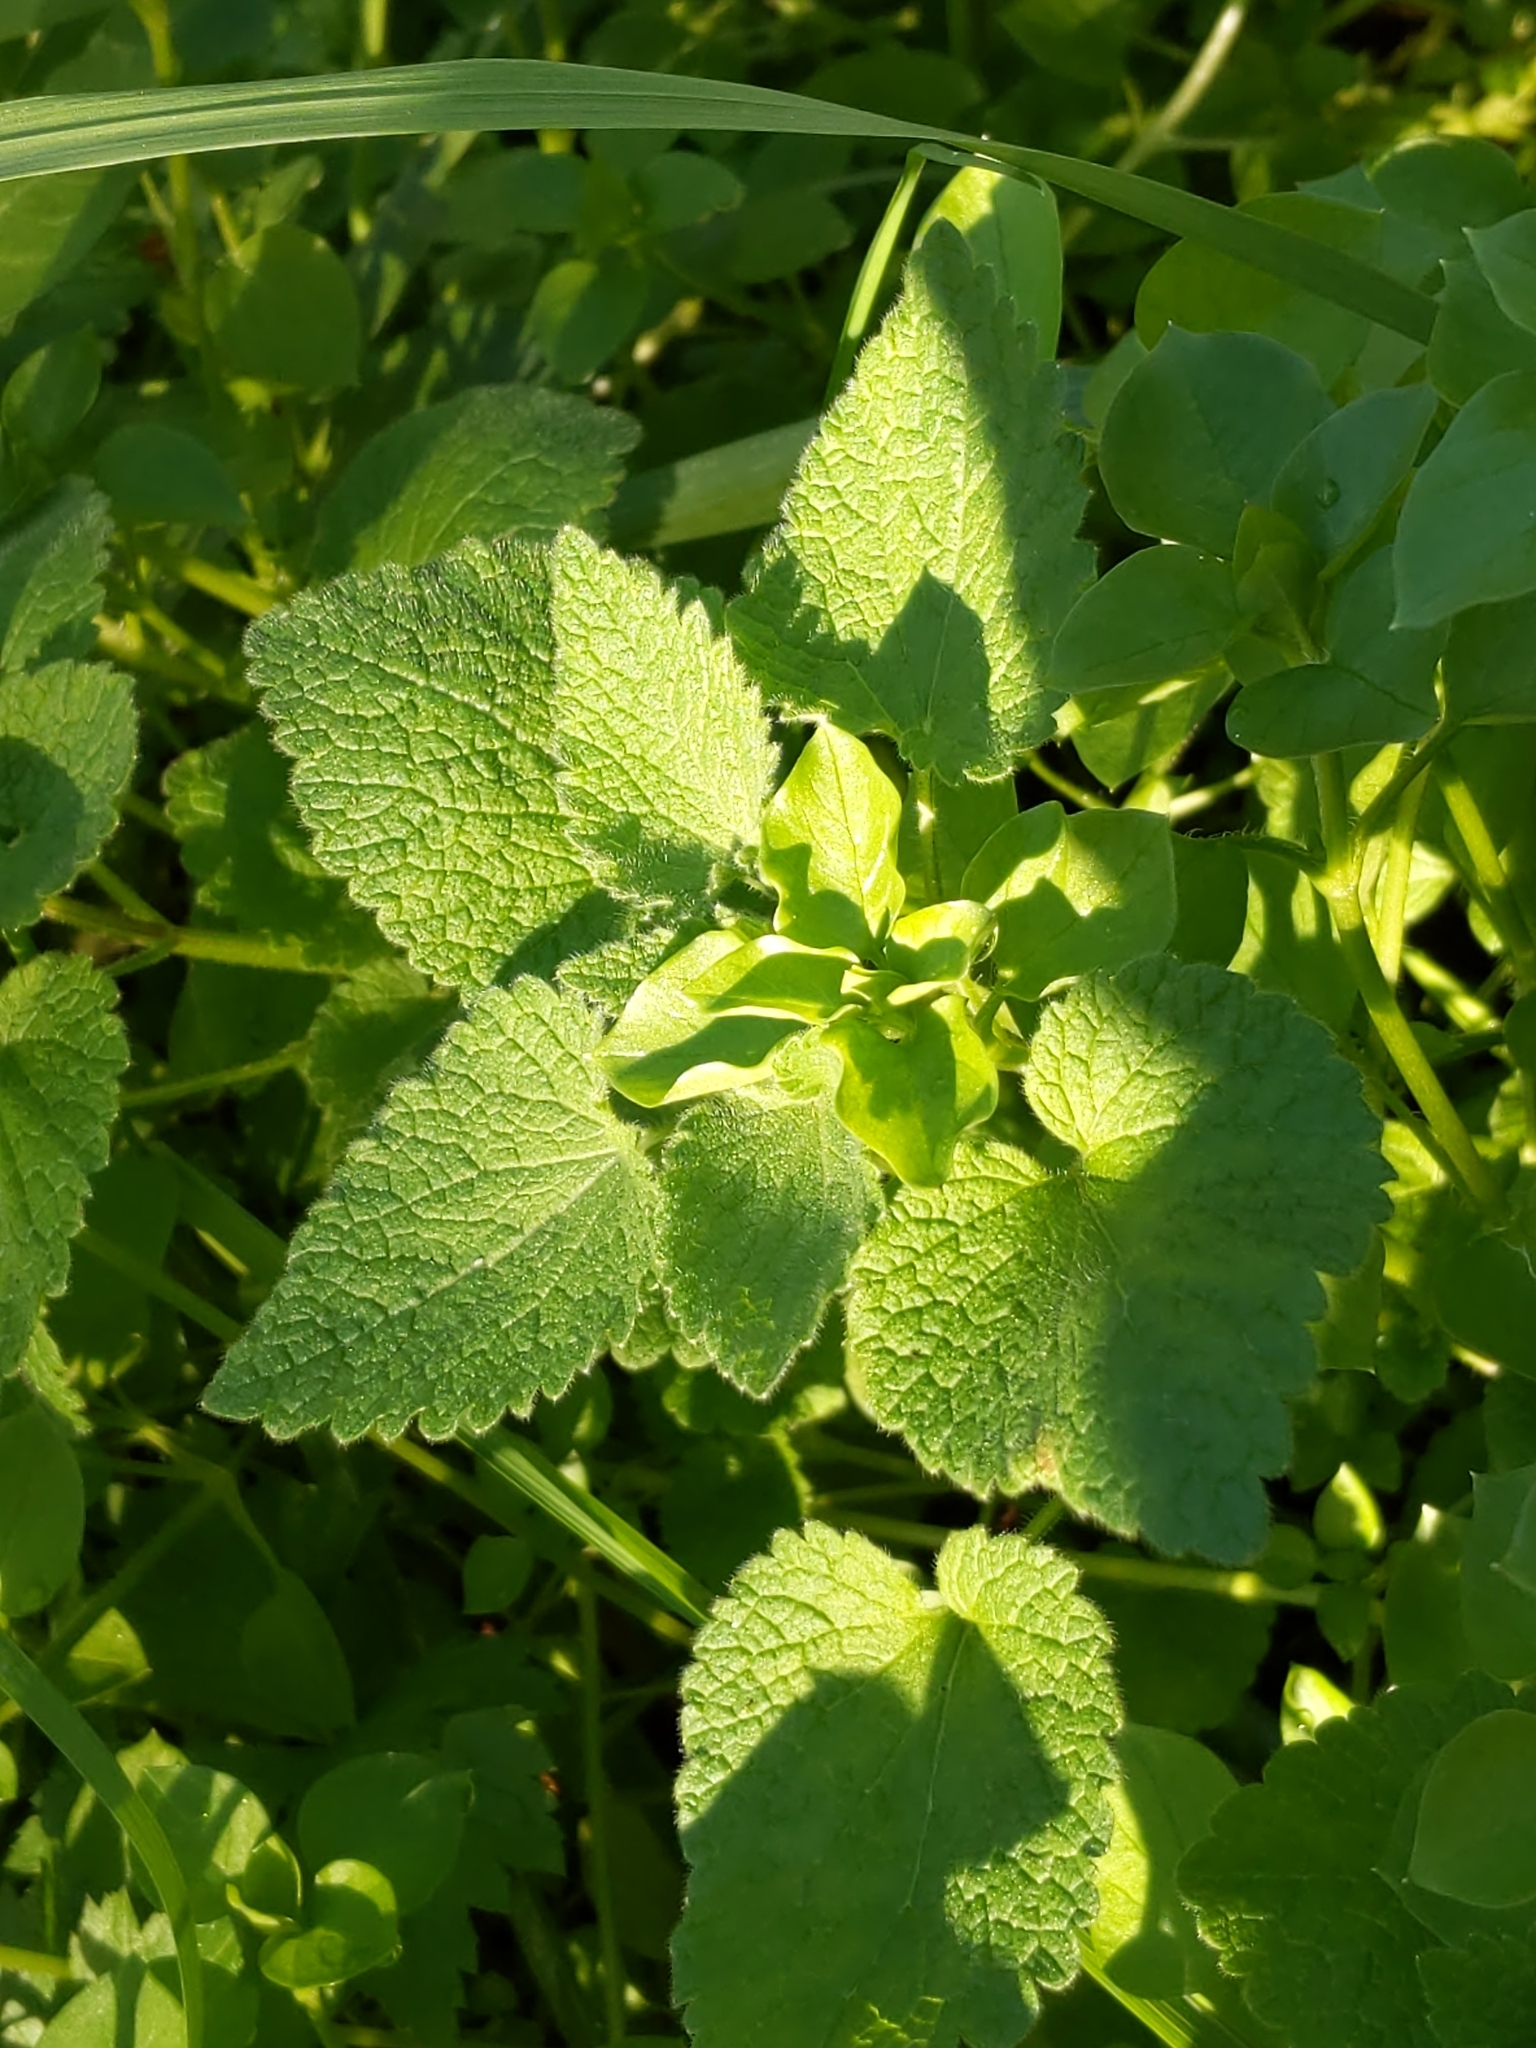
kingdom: Plantae
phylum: Tracheophyta
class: Magnoliopsida
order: Lamiales
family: Lamiaceae
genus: Lamium
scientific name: Lamium purpureum
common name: Red dead-nettle
